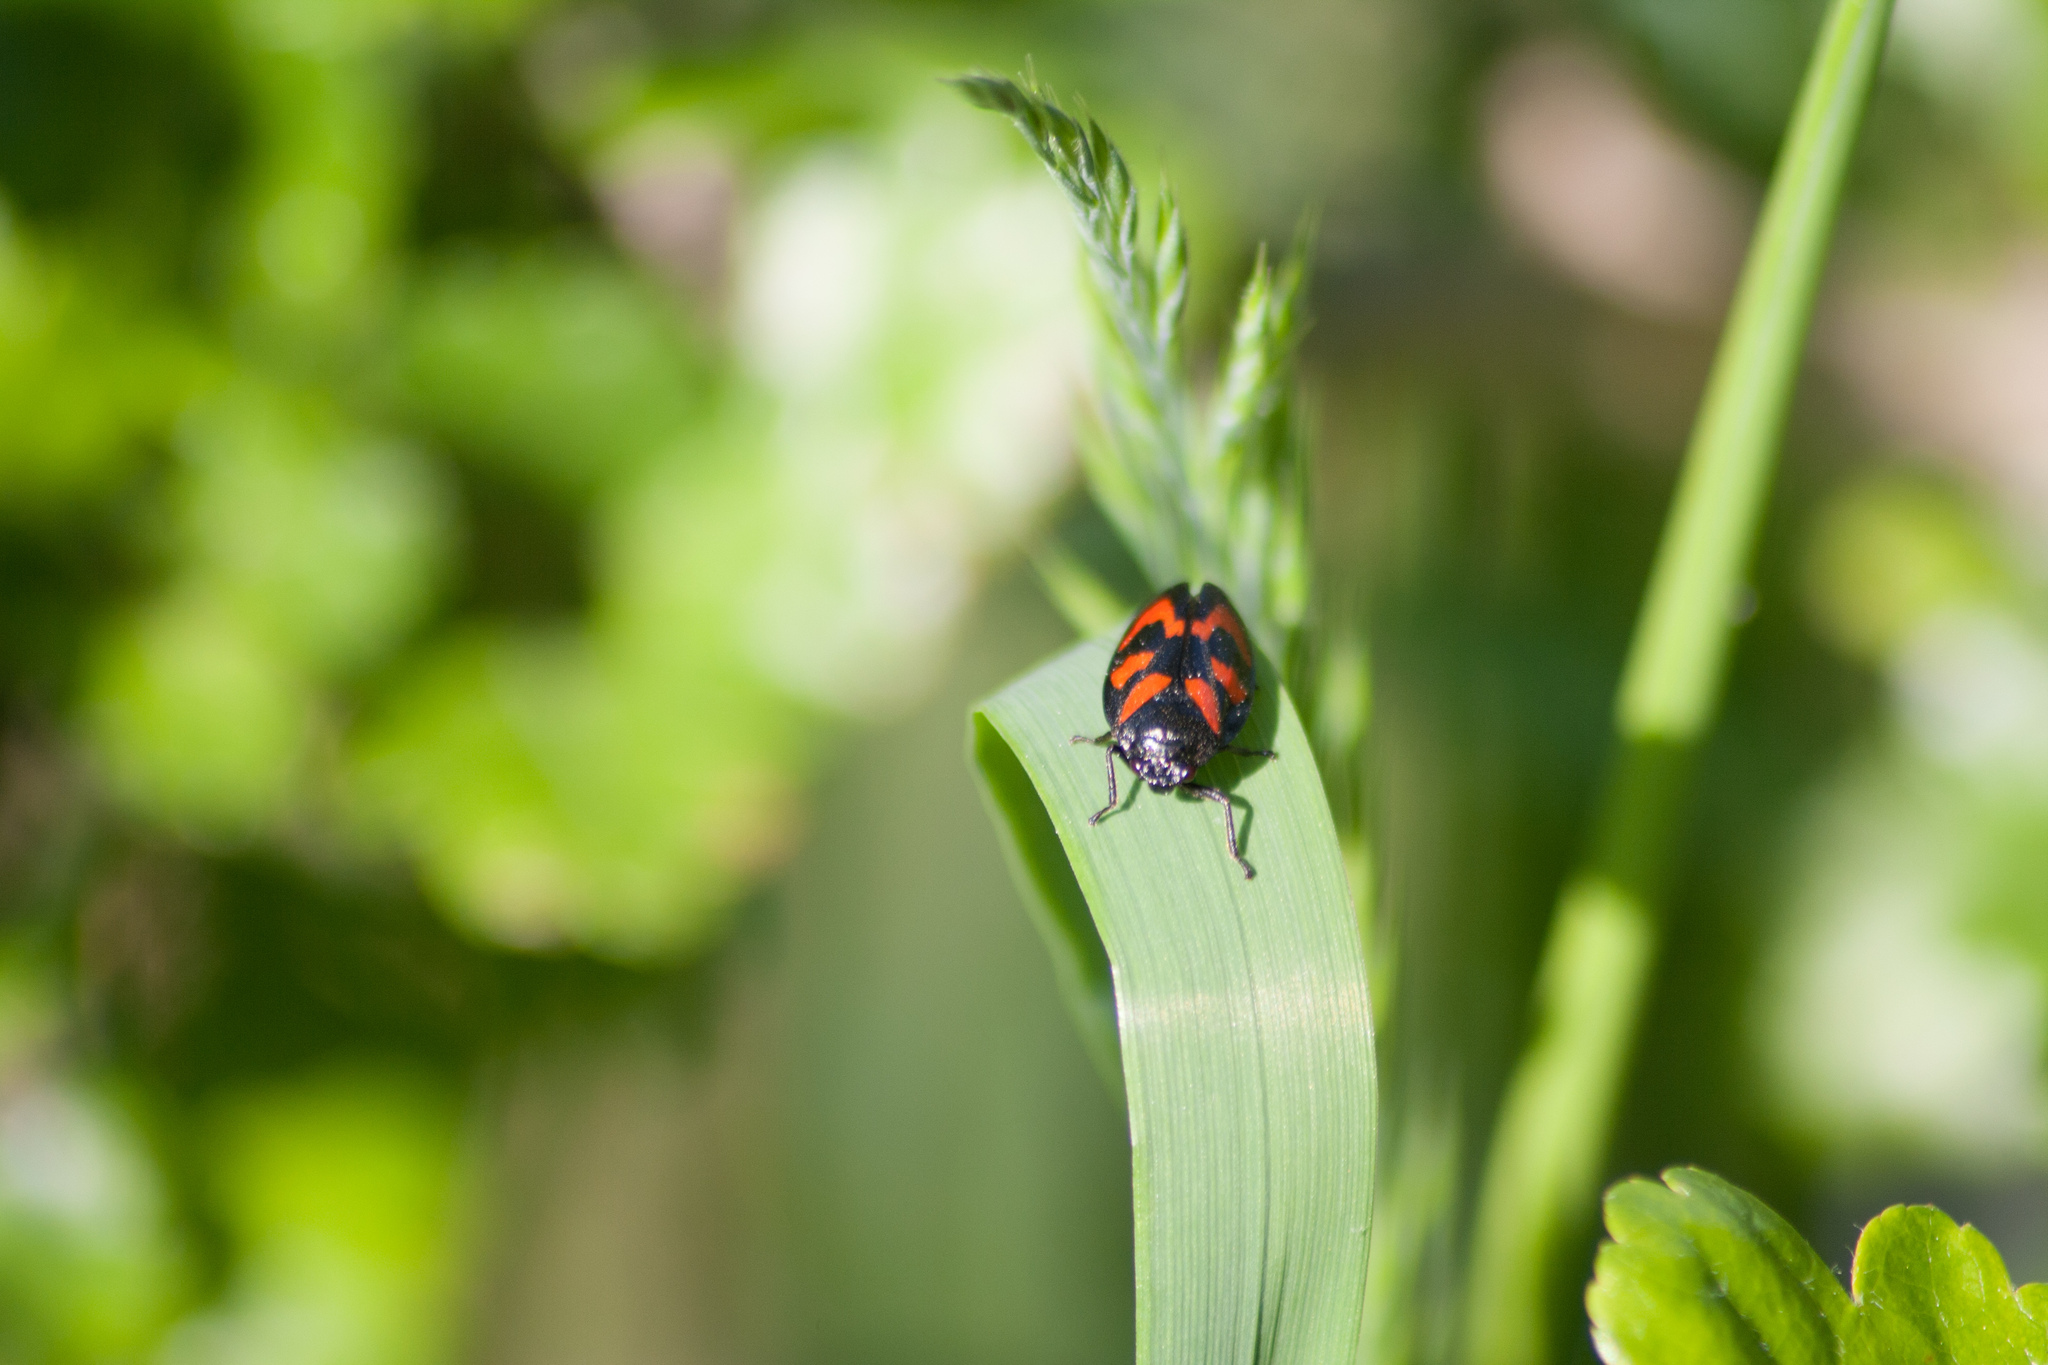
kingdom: Animalia
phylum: Arthropoda
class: Insecta
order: Hemiptera
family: Cercopidae
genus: Cercopis
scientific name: Cercopis vulnerata
